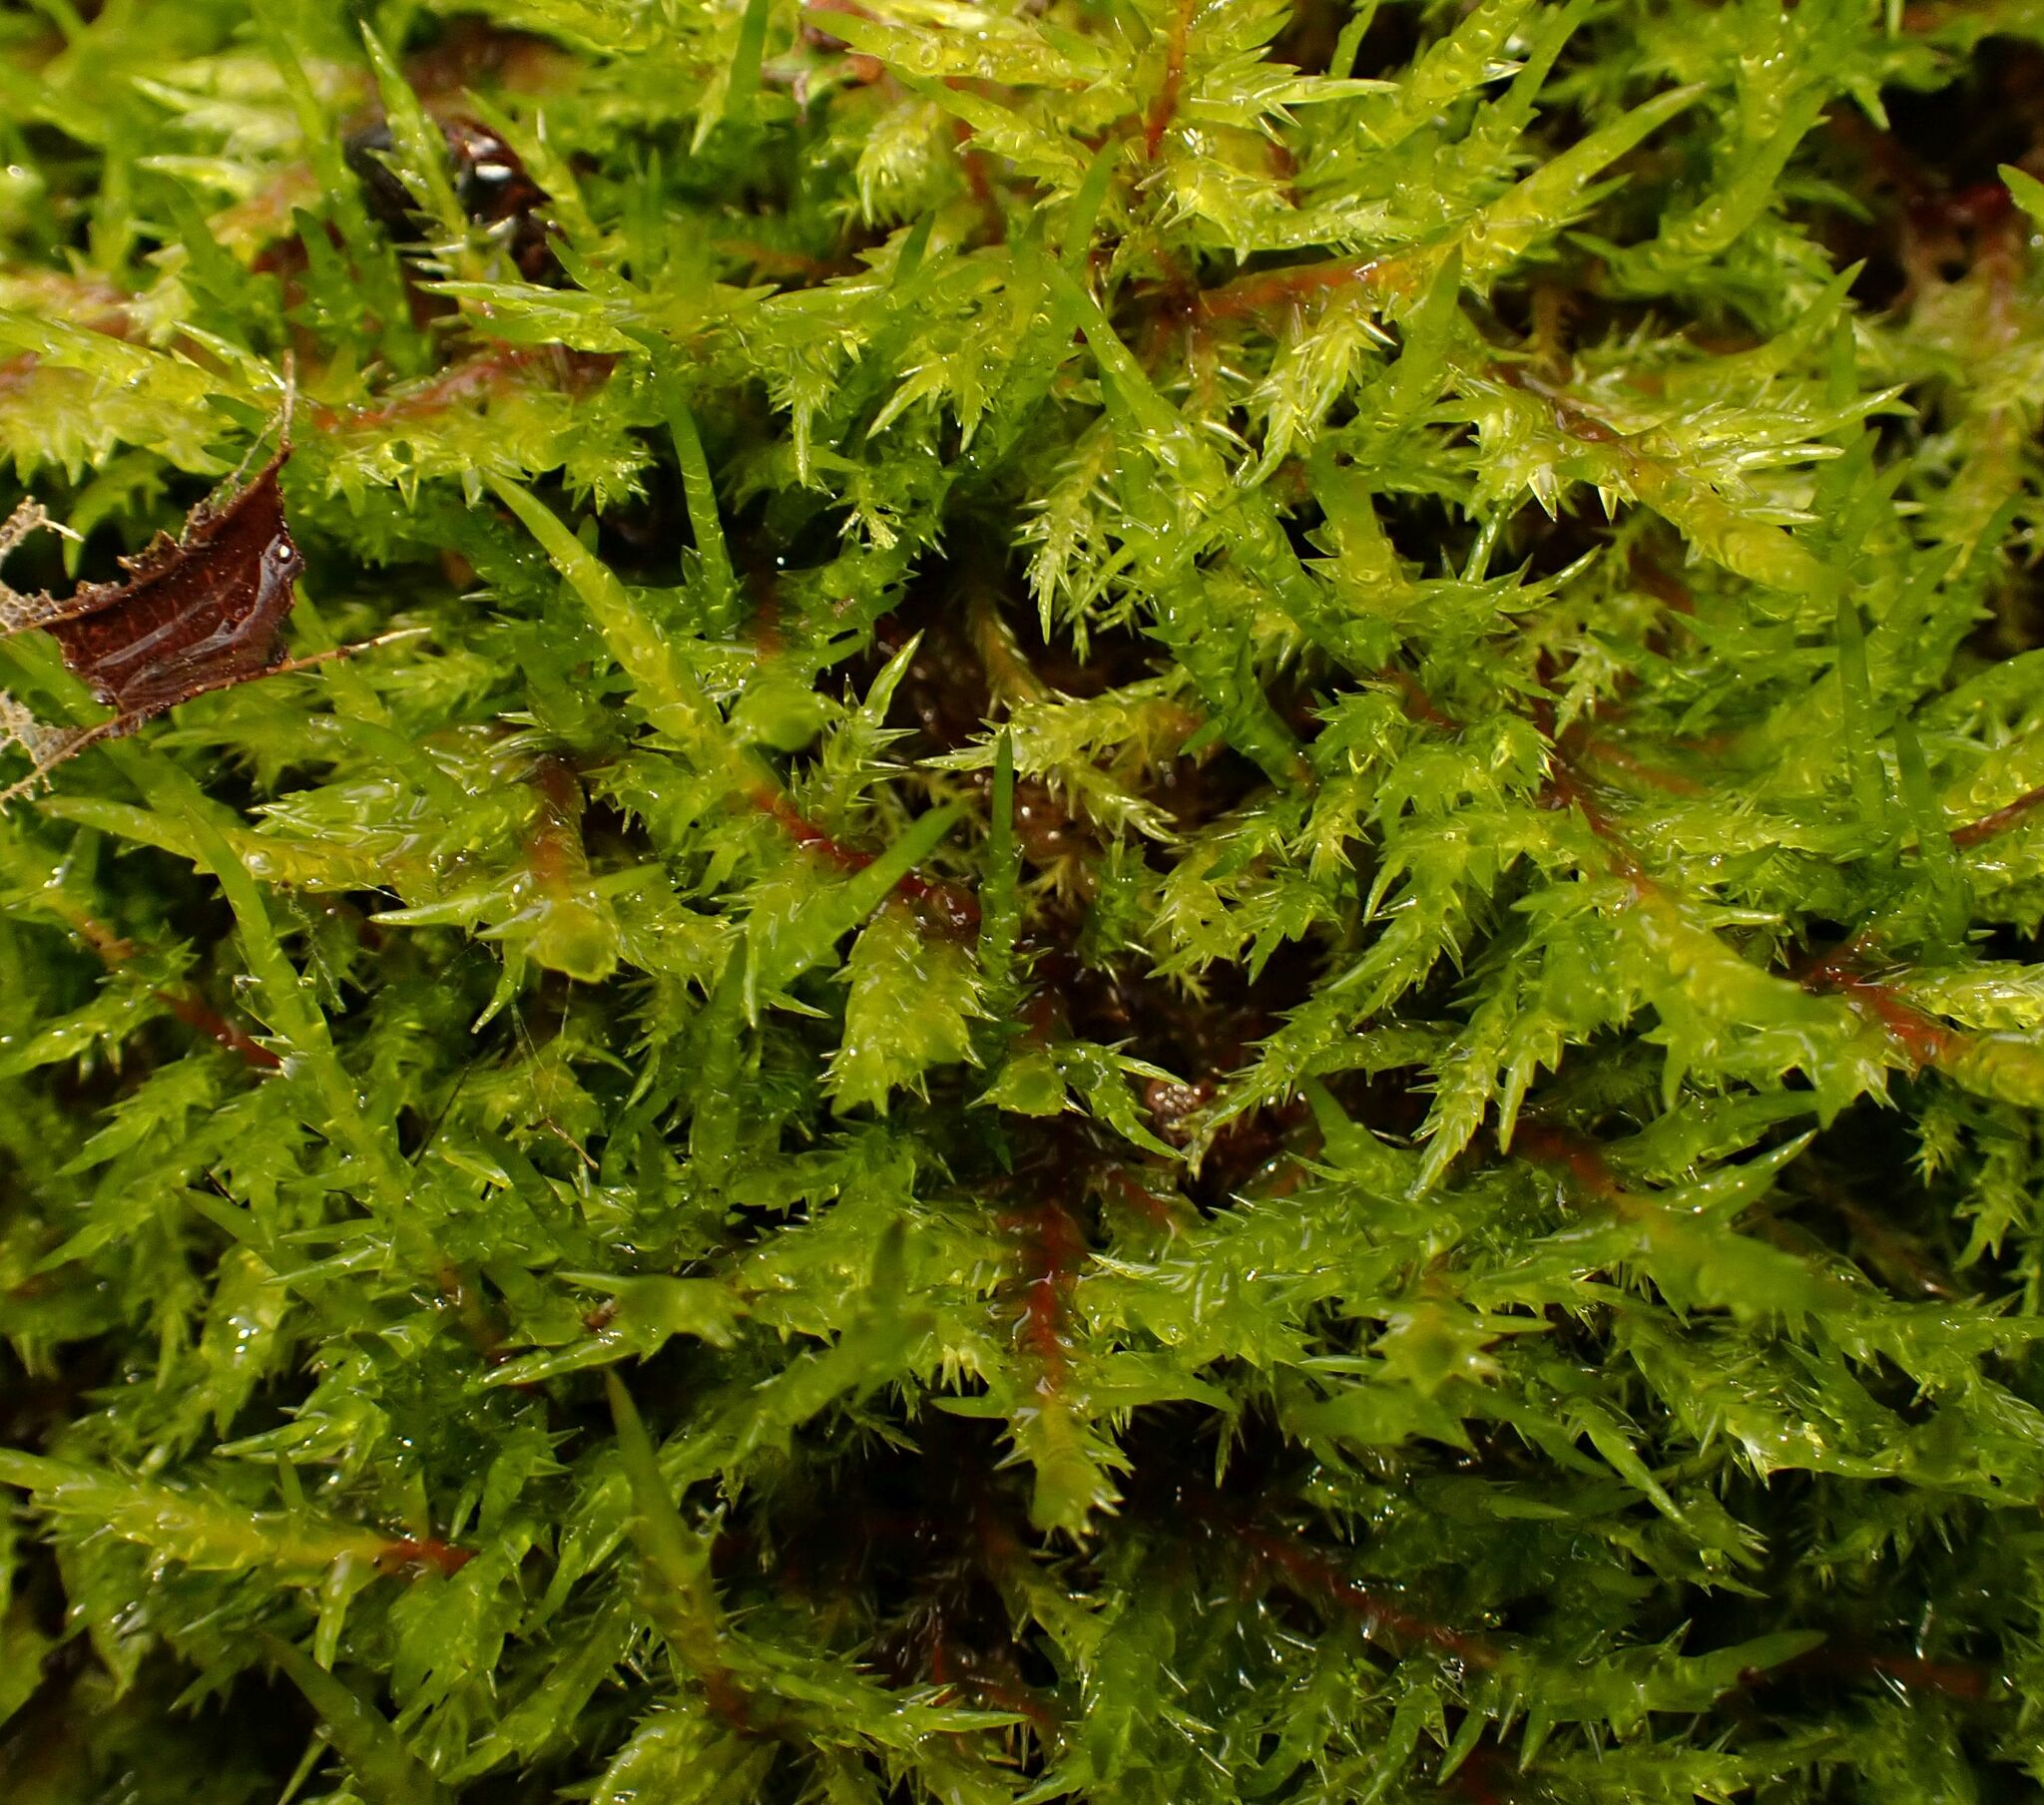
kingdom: Plantae
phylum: Bryophyta
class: Bryopsida
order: Hypnales
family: Pylaisiaceae
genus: Calliergonella
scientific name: Calliergonella cuspidata
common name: Common large wetland moss
